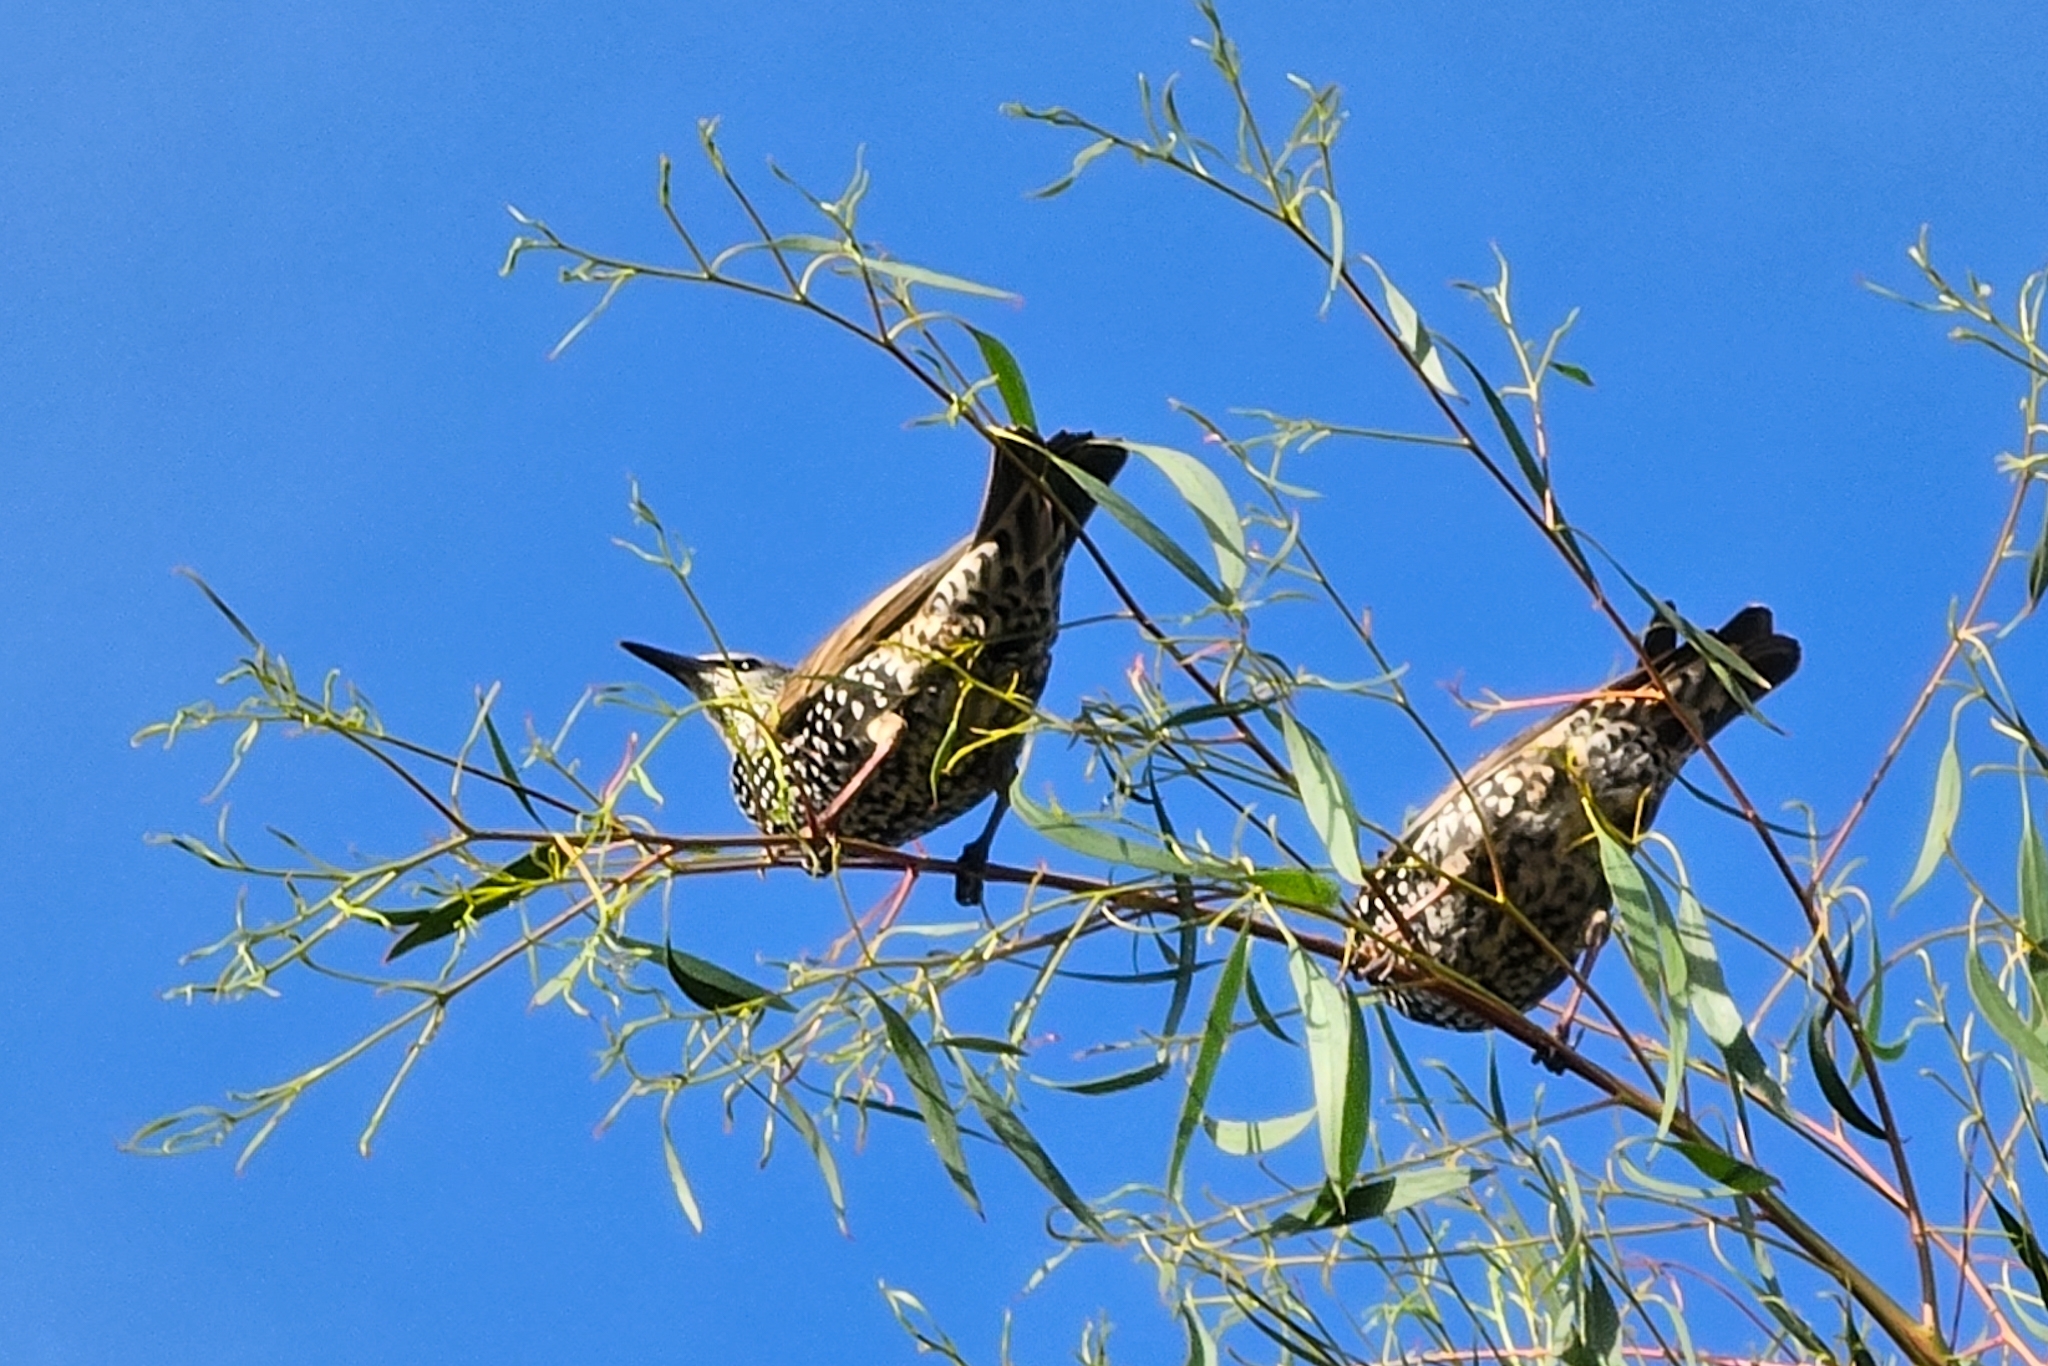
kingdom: Animalia
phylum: Chordata
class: Aves
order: Passeriformes
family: Sturnidae
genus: Sturnus
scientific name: Sturnus vulgaris
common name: Common starling
